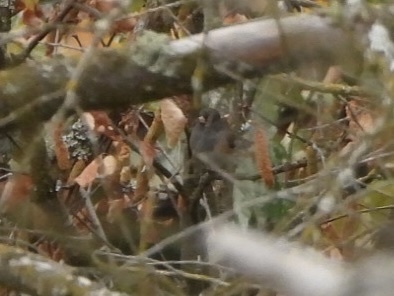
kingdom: Animalia
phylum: Chordata
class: Aves
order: Passeriformes
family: Passerellidae
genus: Junco
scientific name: Junco hyemalis
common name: Dark-eyed junco
